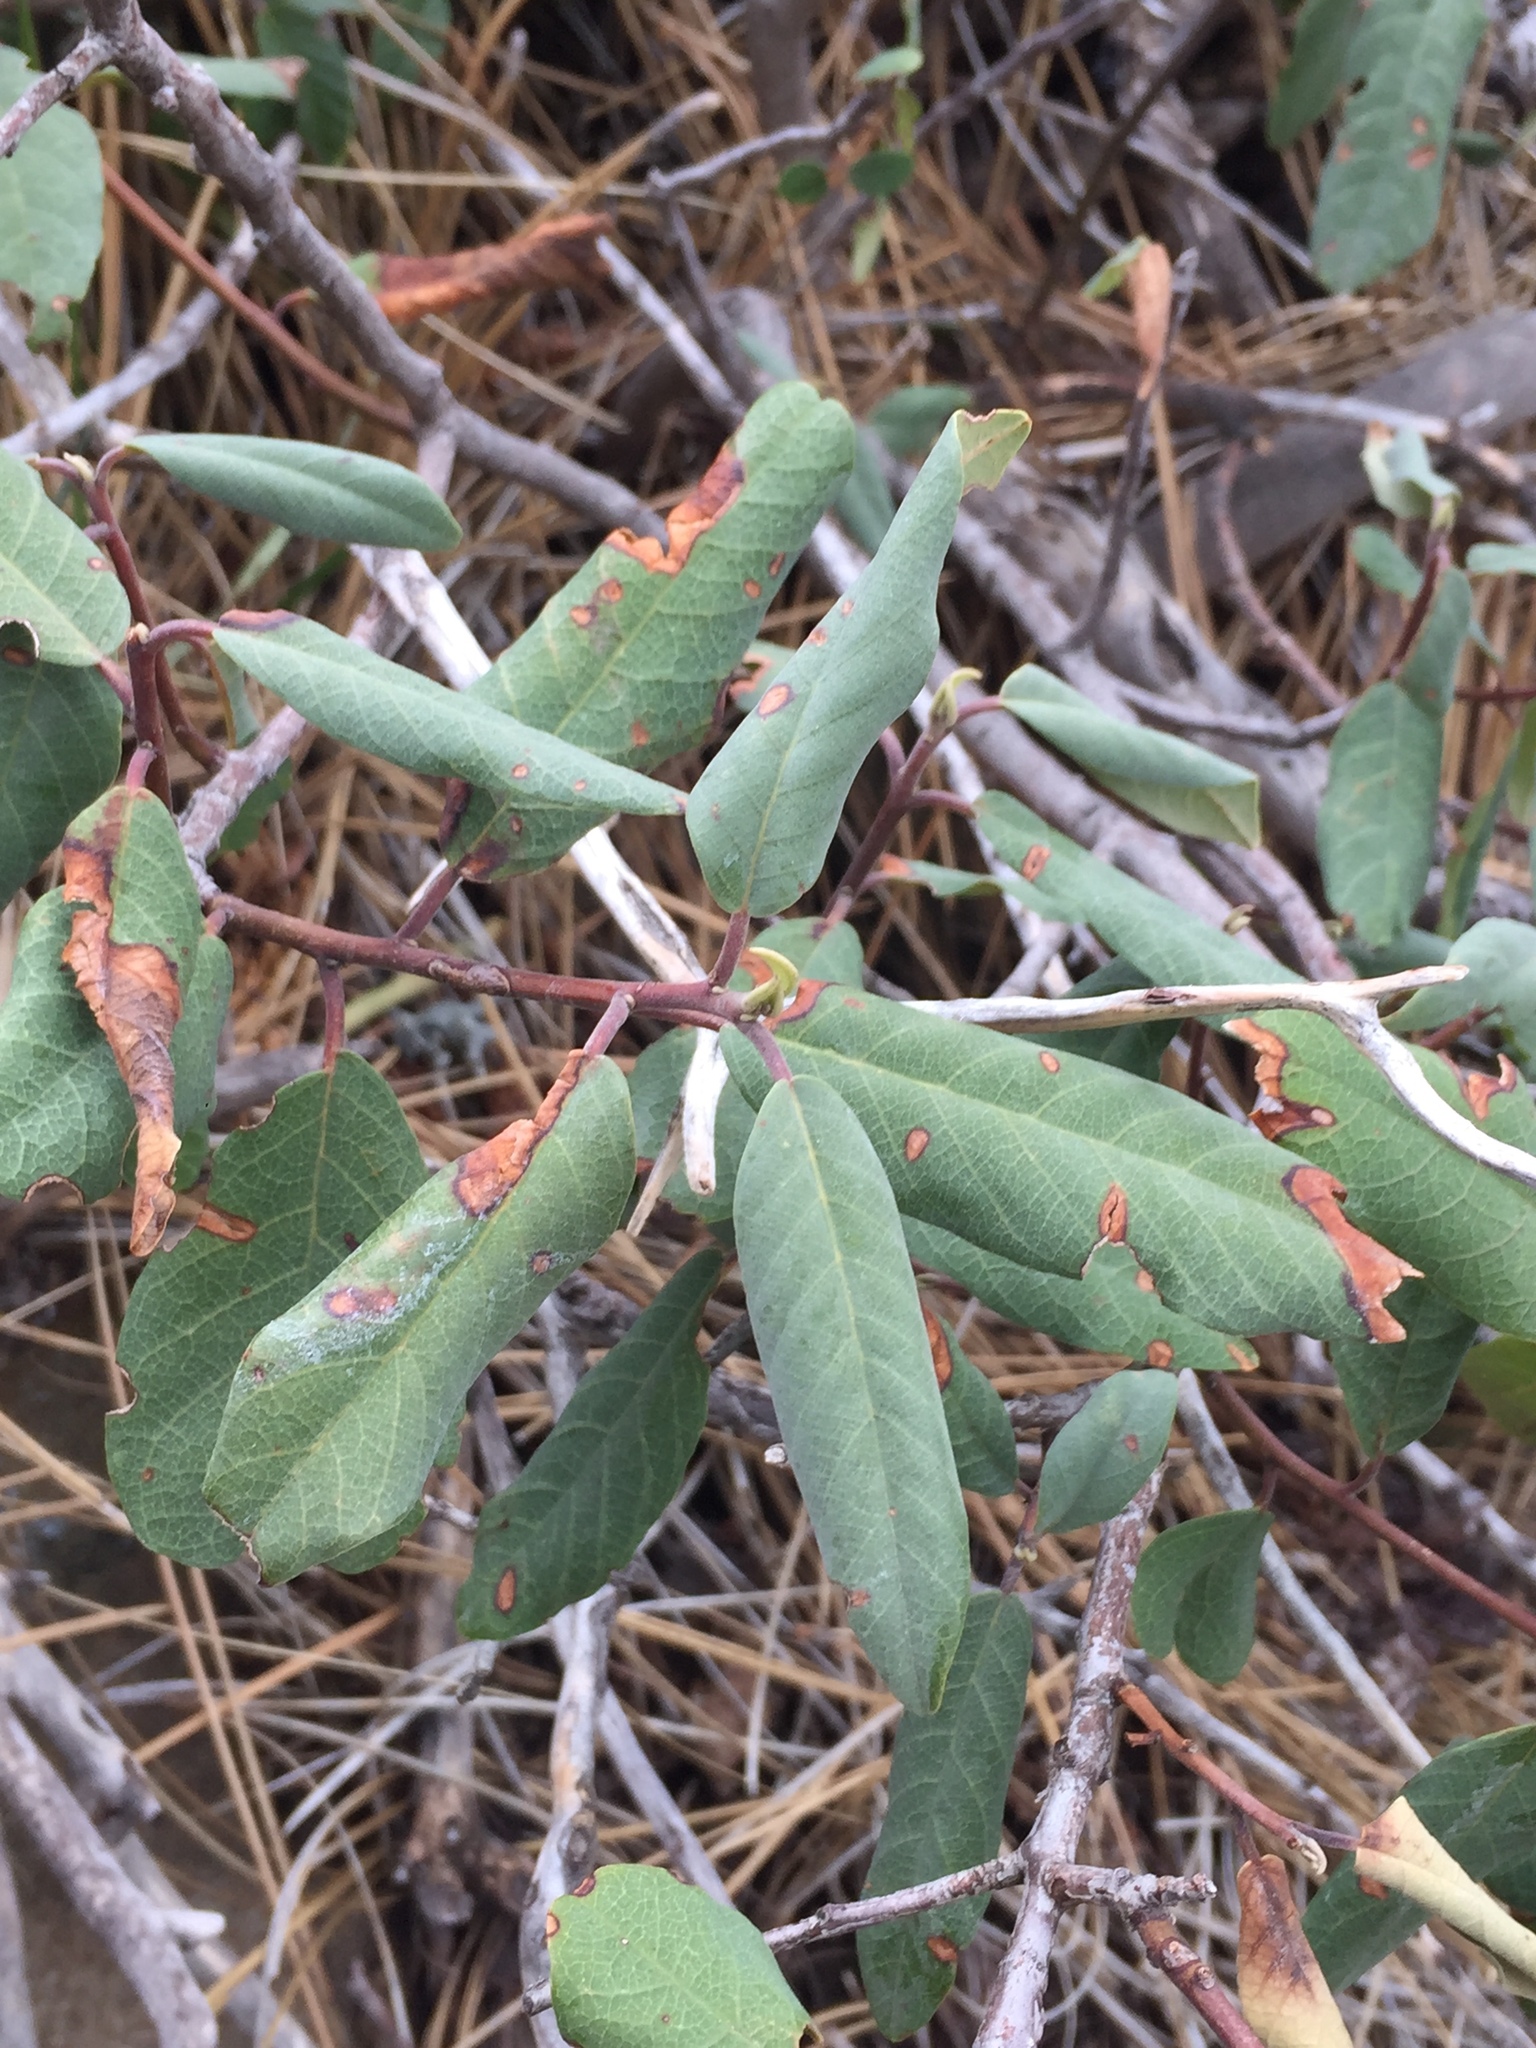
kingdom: Plantae
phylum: Tracheophyta
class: Magnoliopsida
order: Rosales
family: Rhamnaceae
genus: Frangula
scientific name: Frangula californica
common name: California buckthorn
